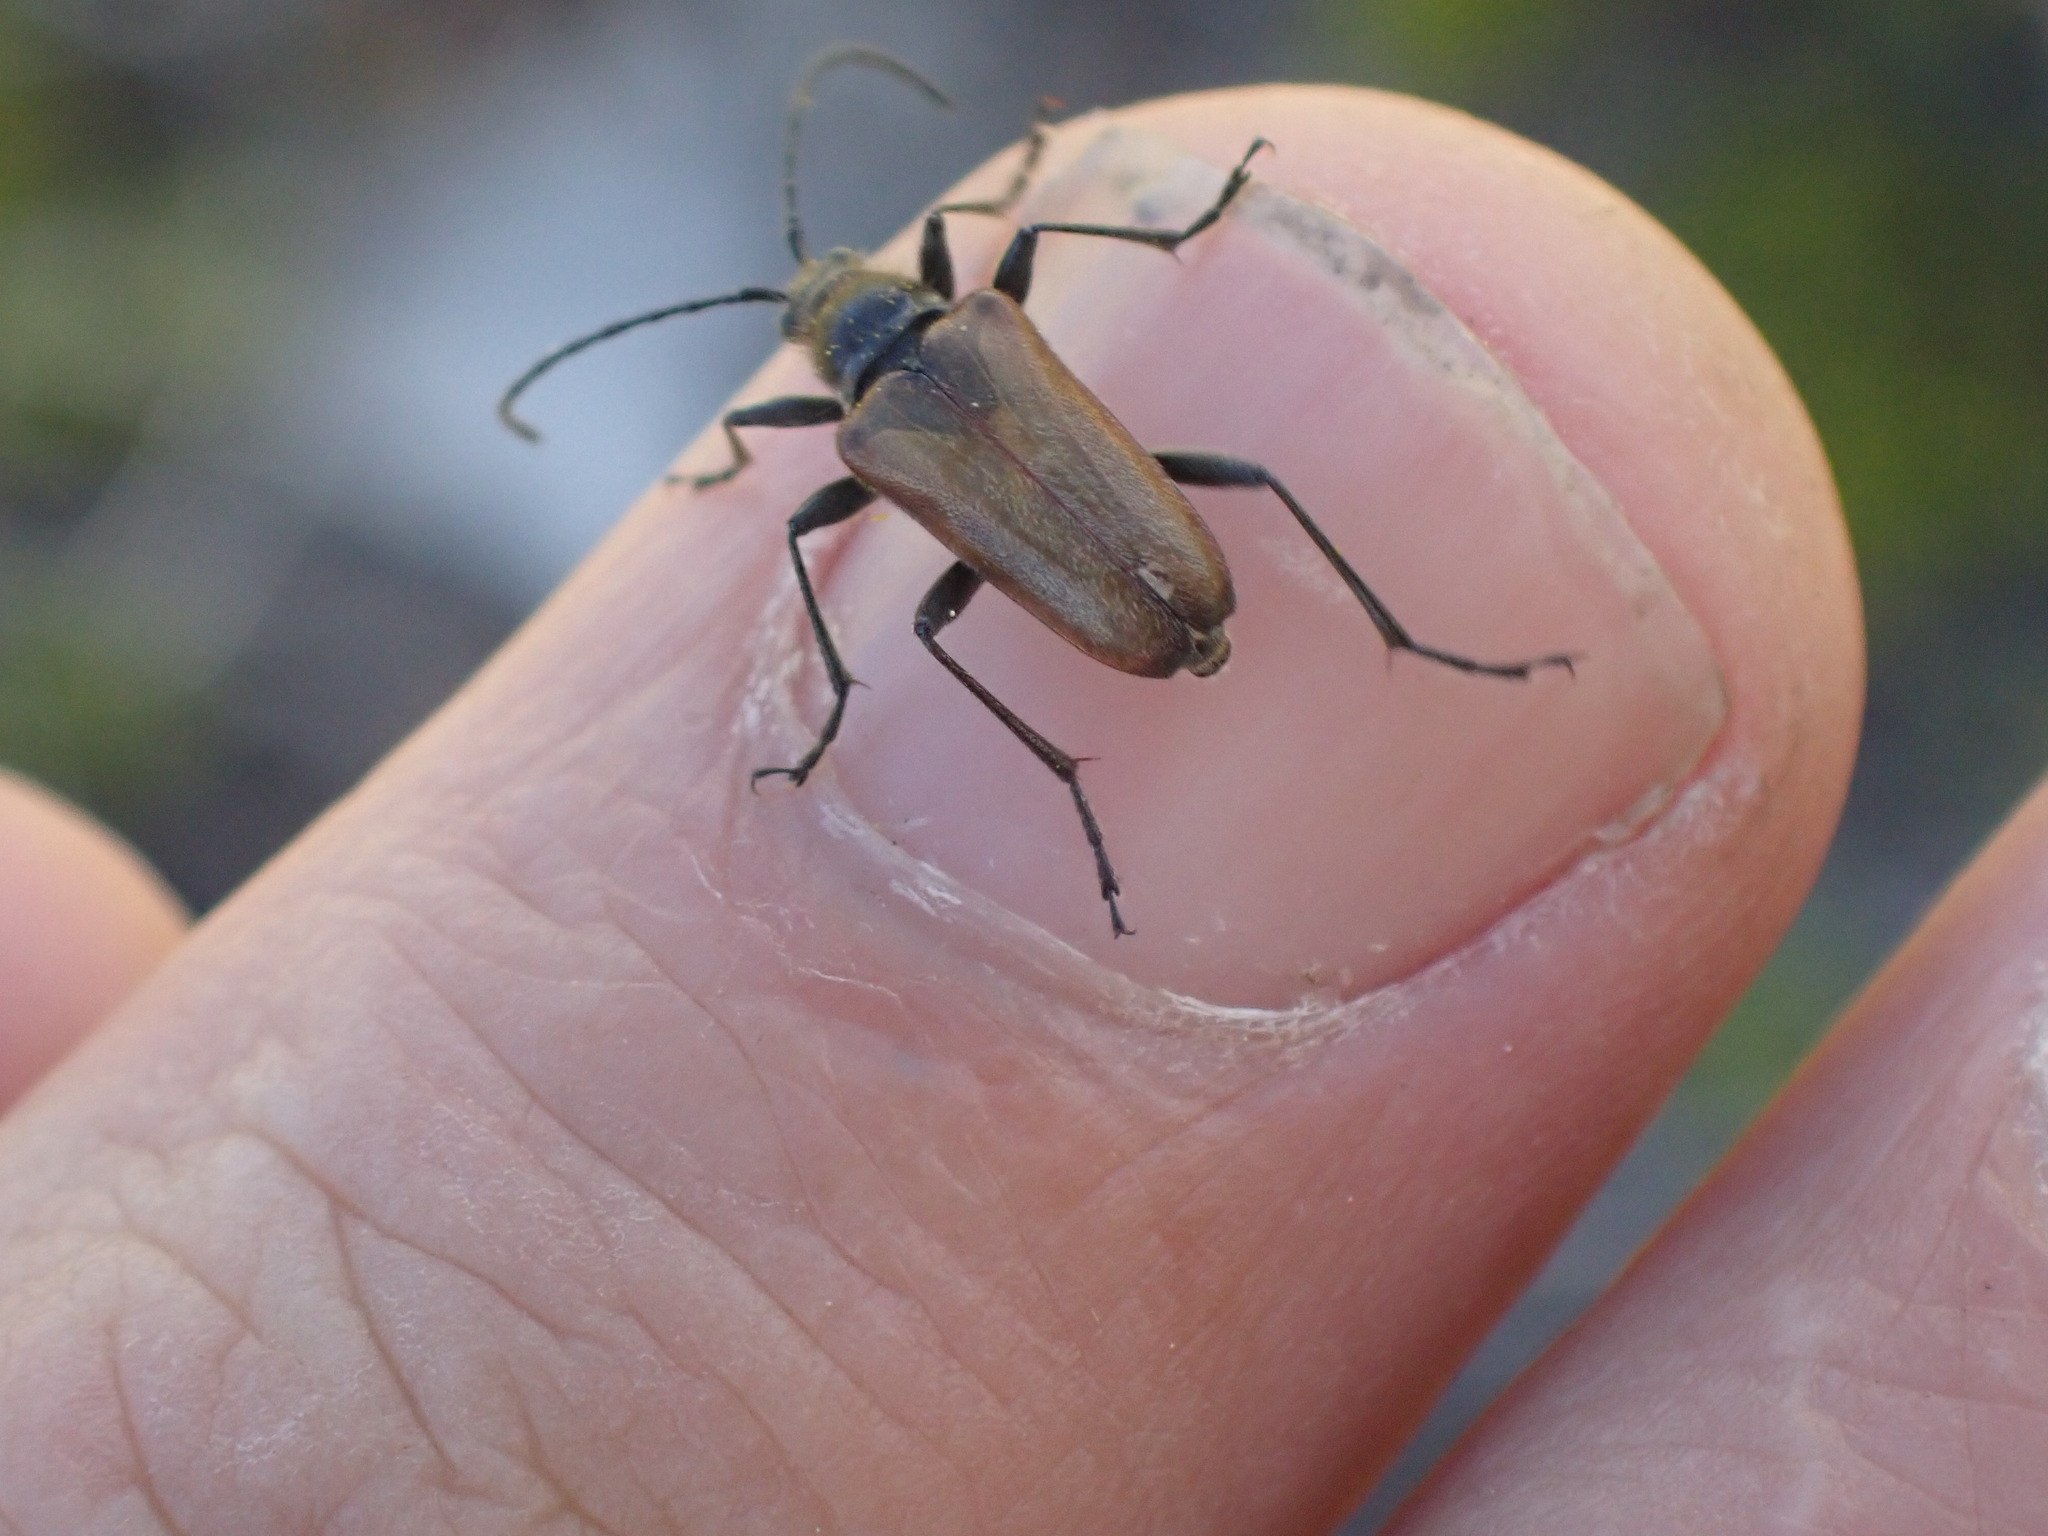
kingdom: Animalia
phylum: Arthropoda
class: Insecta
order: Coleoptera
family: Cerambycidae
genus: Acmaeops
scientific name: Acmaeops proteus
